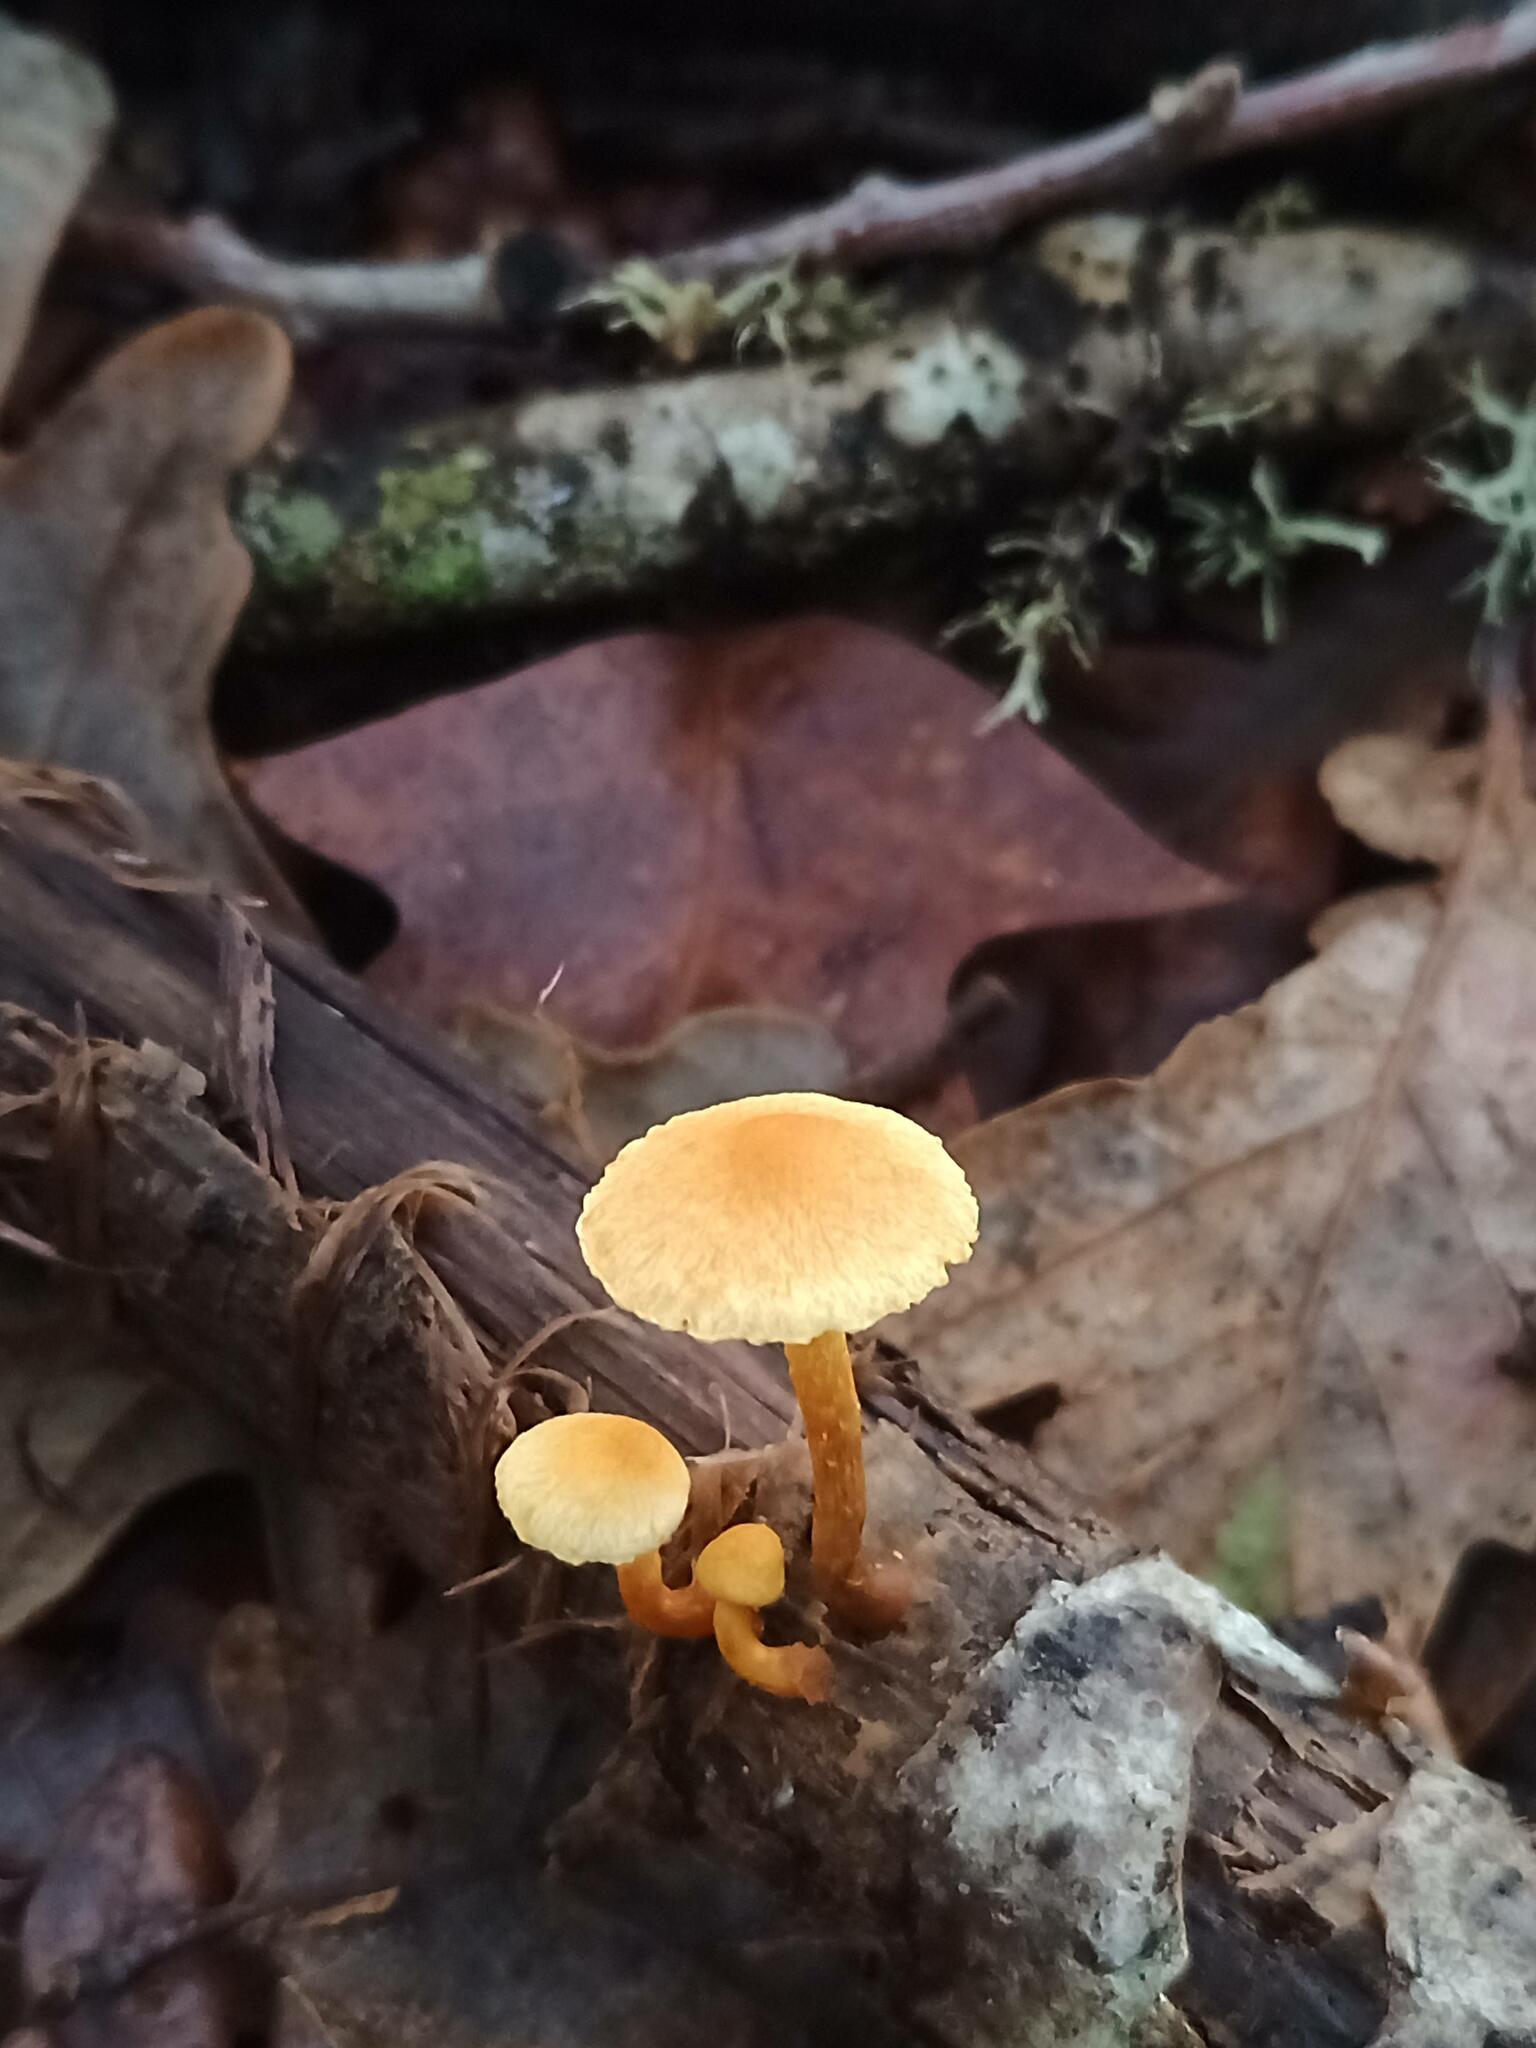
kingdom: Fungi
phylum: Basidiomycota
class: Agaricomycetes
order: Agaricales
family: Strophariaceae
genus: Pholiota
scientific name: Pholiota tuberculosa
